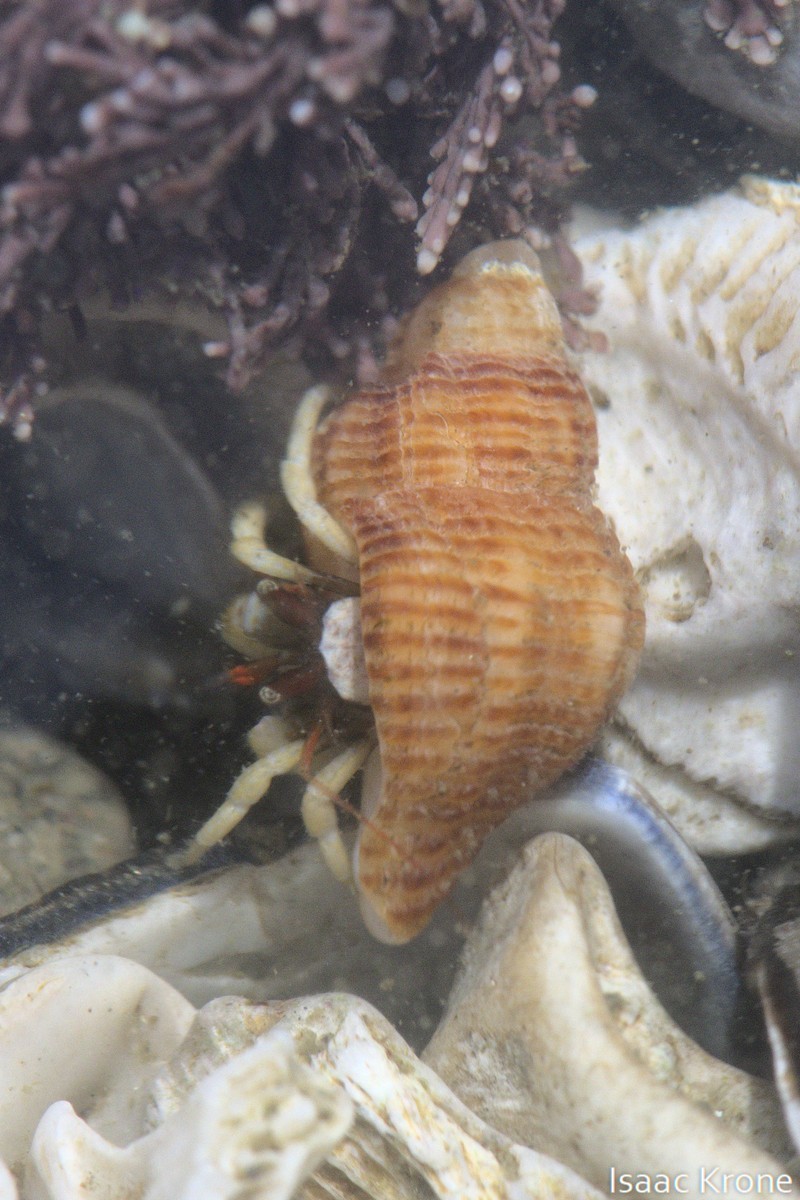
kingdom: Animalia
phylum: Arthropoda
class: Malacostraca
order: Decapoda
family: Paguridae
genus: Pagurus
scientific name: Pagurus granosimanus
